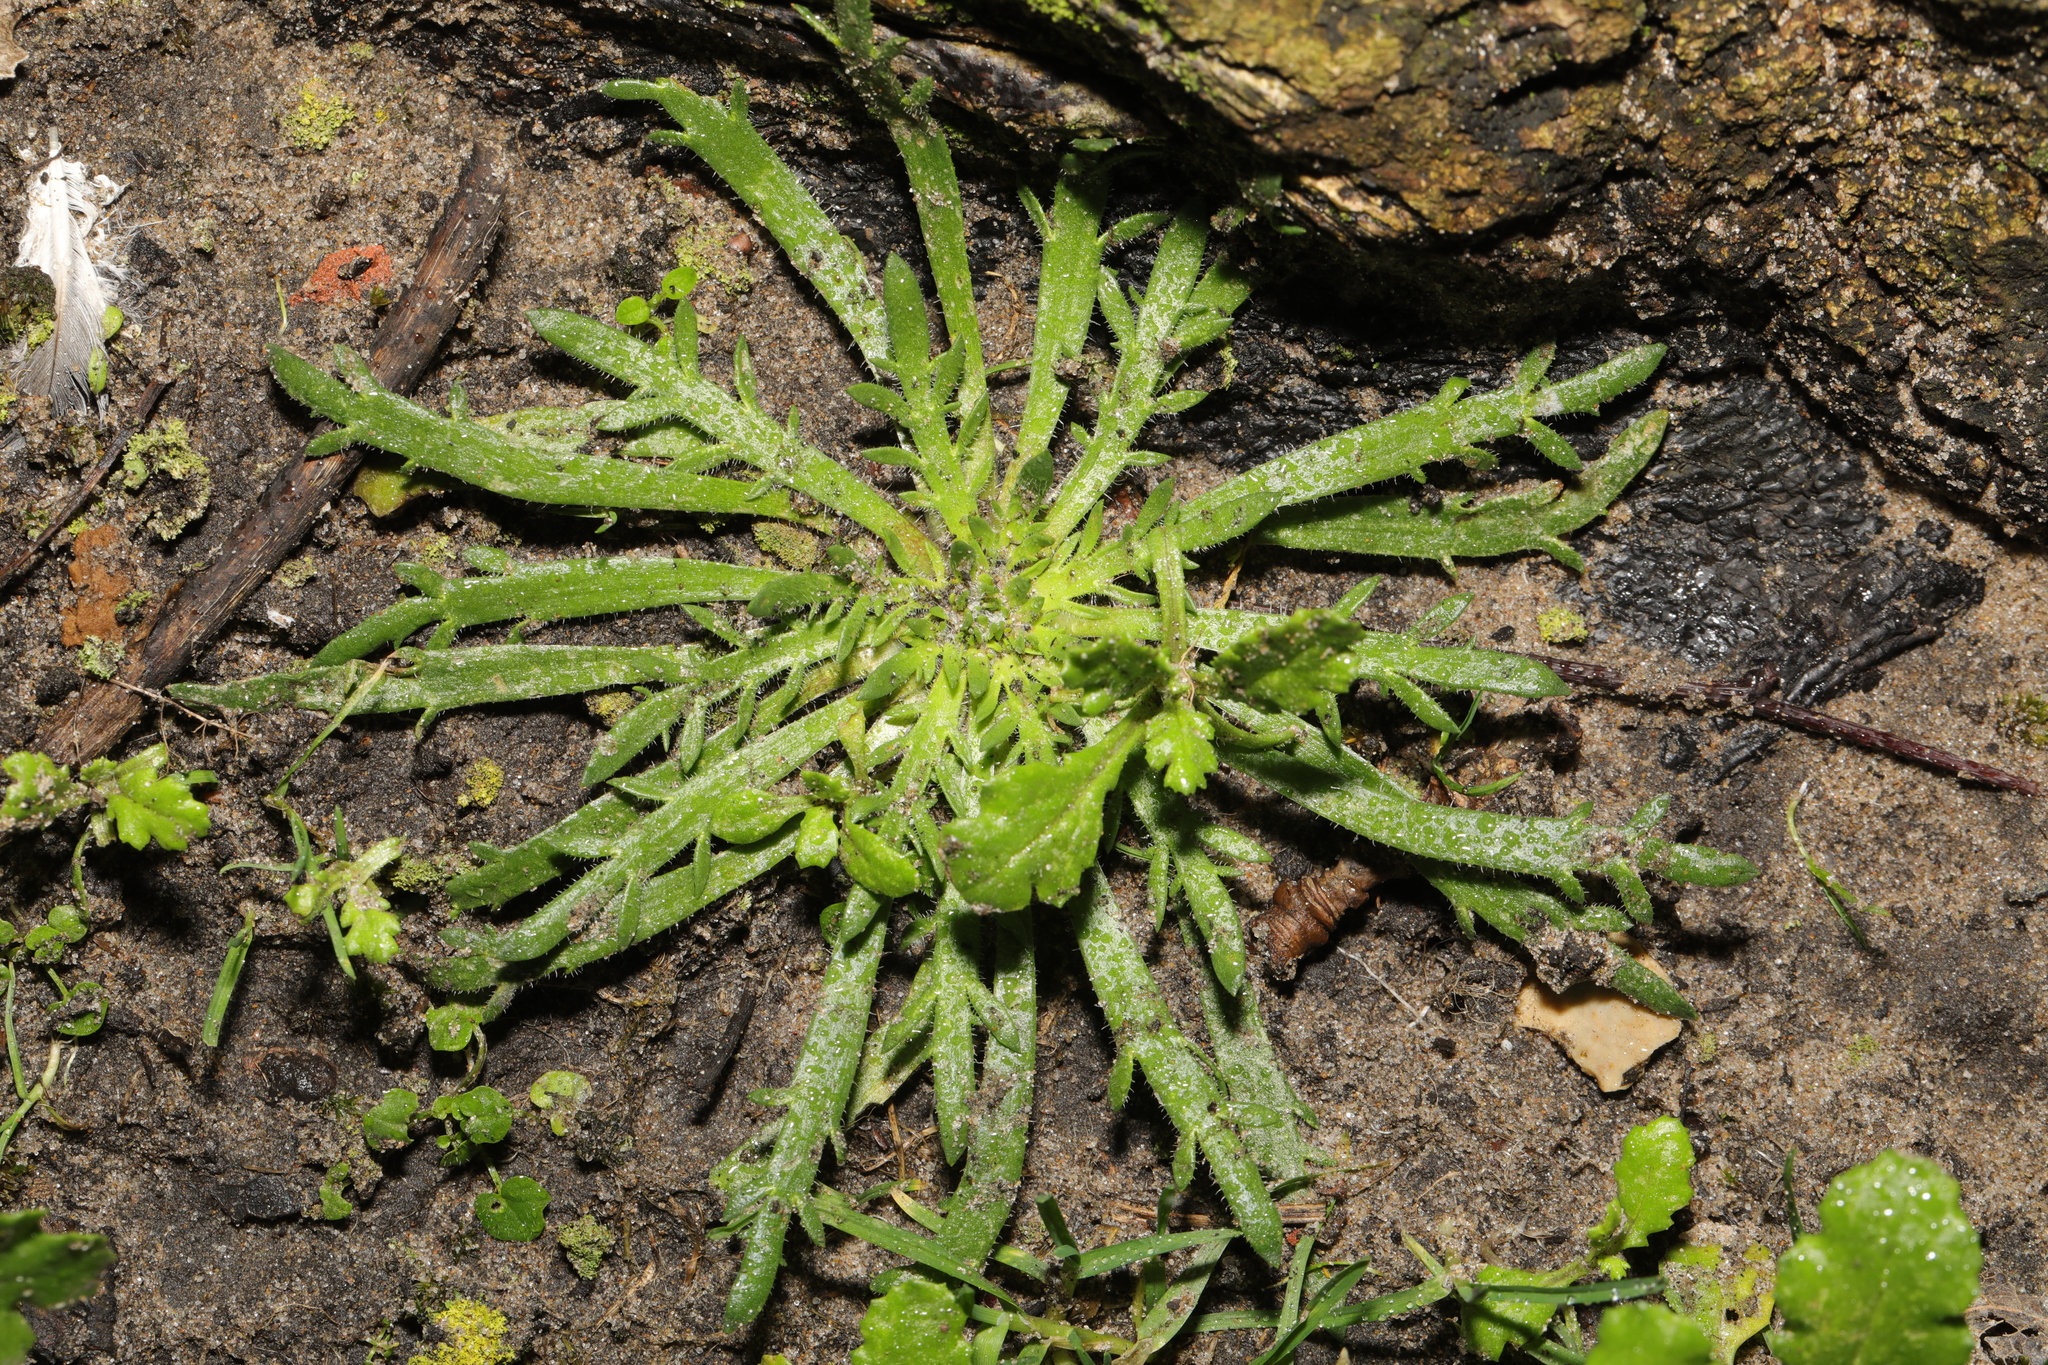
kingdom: Plantae
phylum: Tracheophyta
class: Magnoliopsida
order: Lamiales
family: Plantaginaceae
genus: Plantago
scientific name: Plantago coronopus
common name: Buck's-horn plantain
